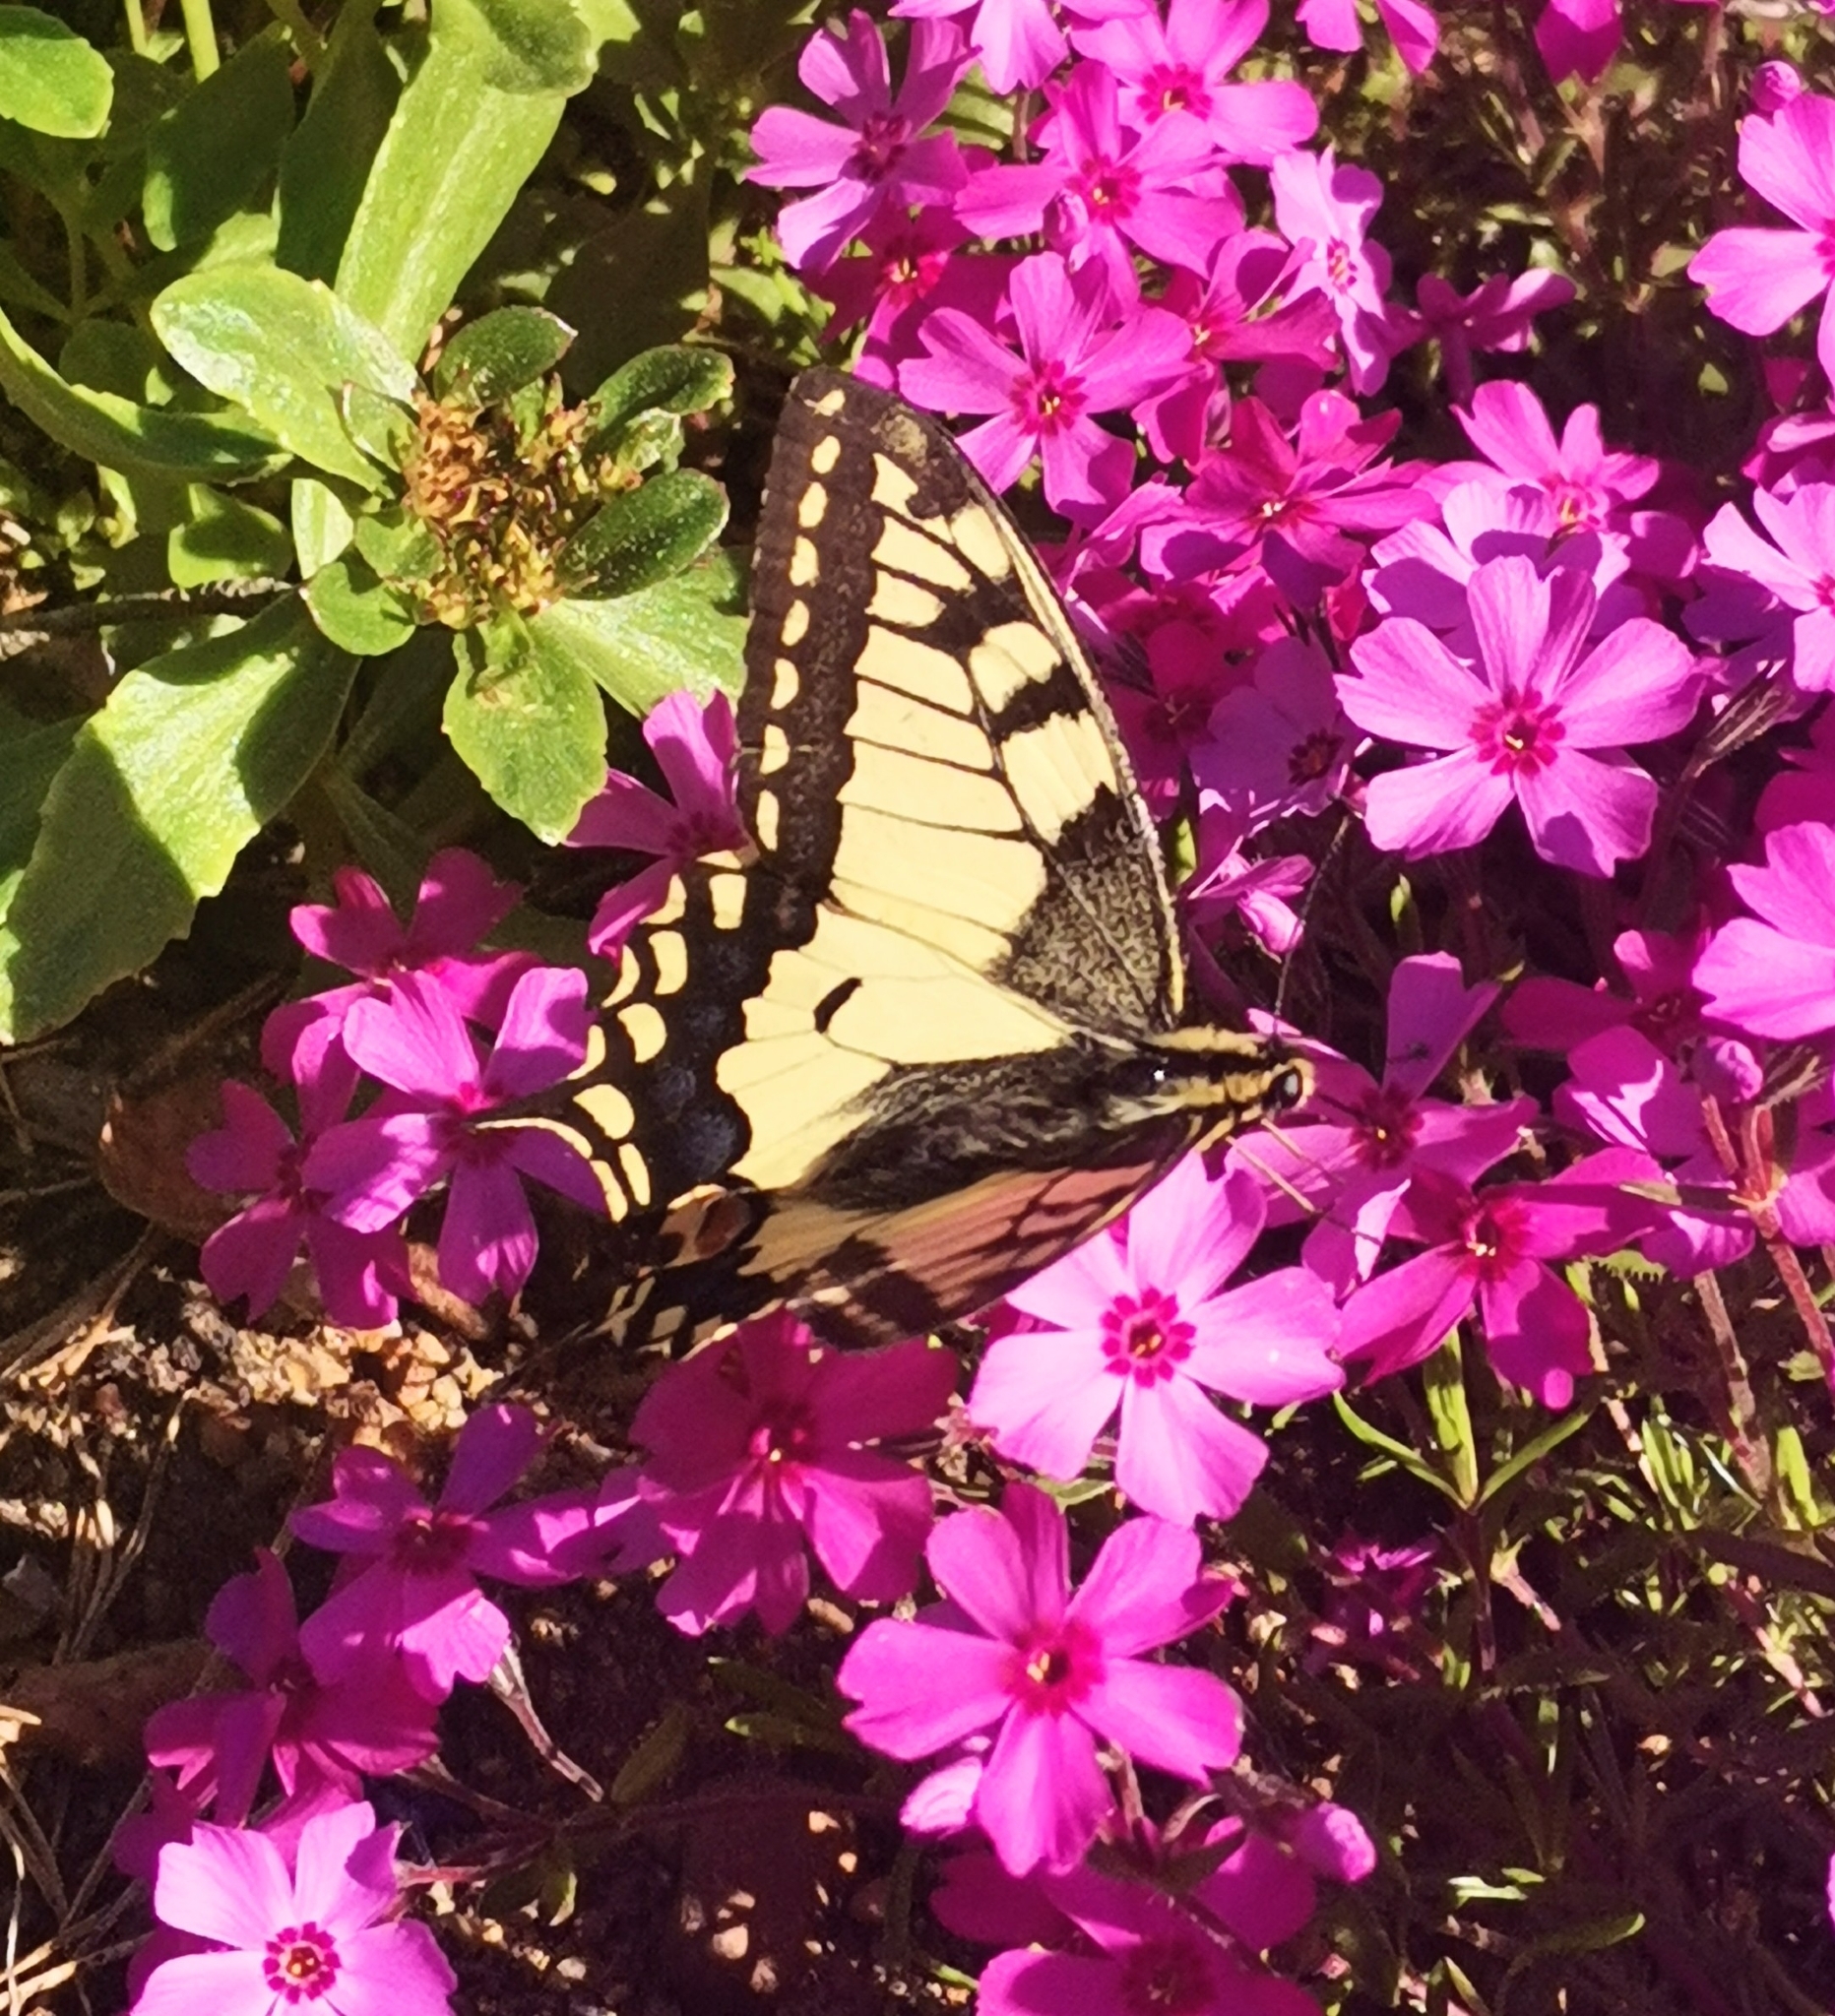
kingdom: Animalia
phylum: Arthropoda
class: Insecta
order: Lepidoptera
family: Papilionidae
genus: Papilio
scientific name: Papilio machaon
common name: Swallowtail
